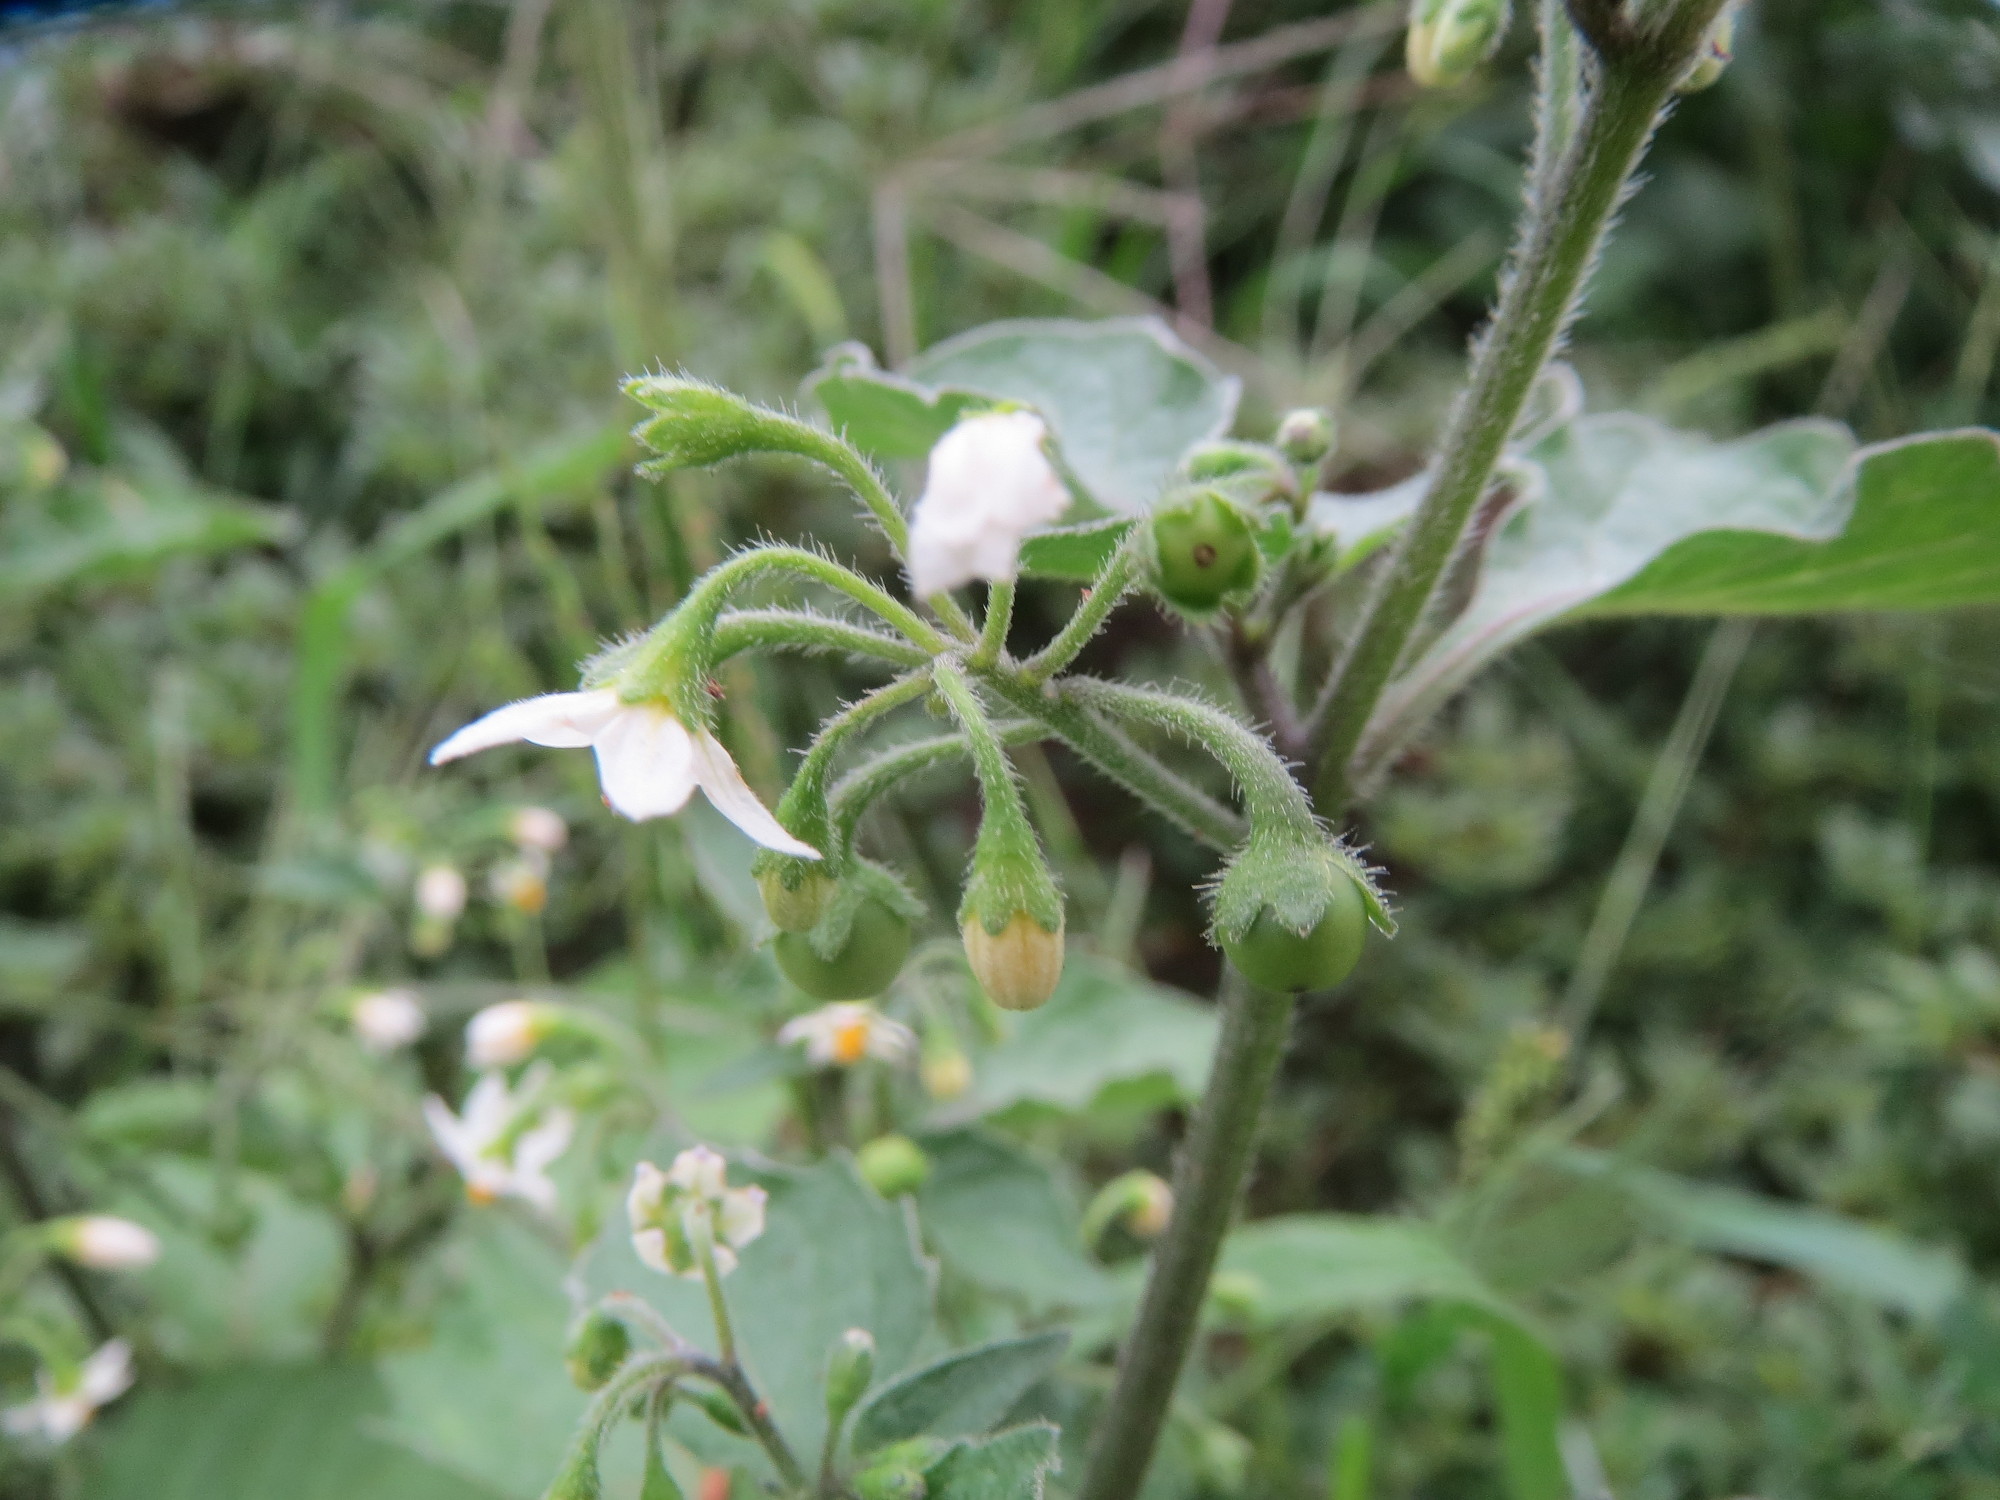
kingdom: Plantae
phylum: Tracheophyta
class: Magnoliopsida
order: Solanales
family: Solanaceae
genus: Solanum
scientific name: Solanum nigrum
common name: Black nightshade
